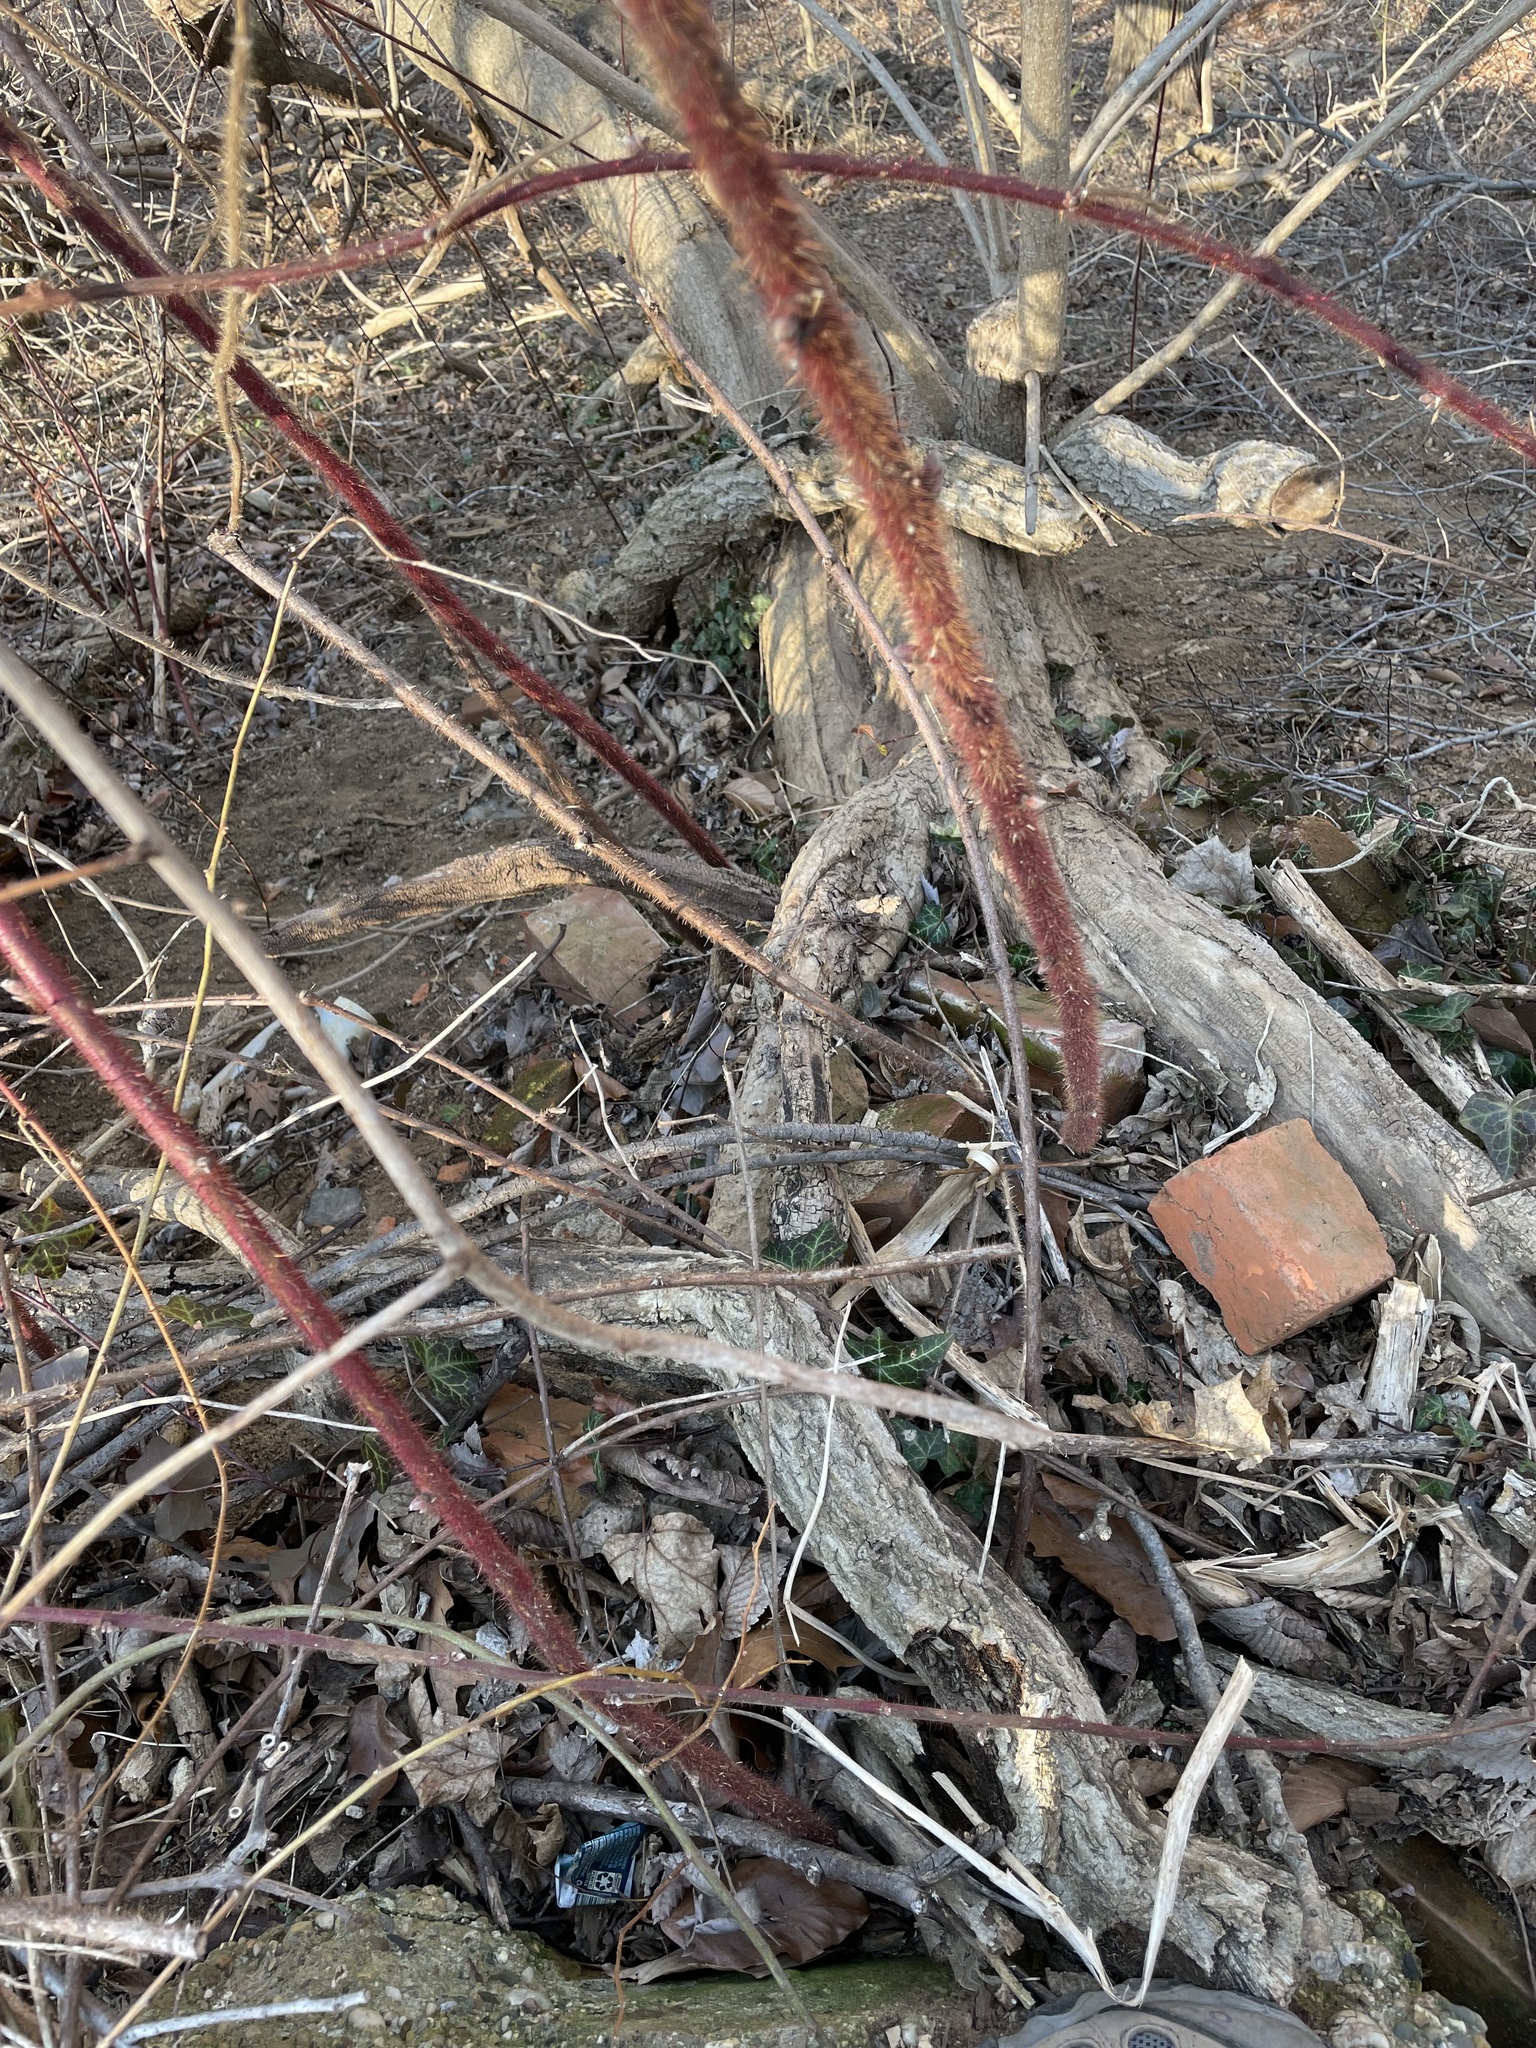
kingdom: Plantae
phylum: Tracheophyta
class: Magnoliopsida
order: Rosales
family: Rosaceae
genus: Rubus
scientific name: Rubus phoenicolasius
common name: Japanese wineberry
